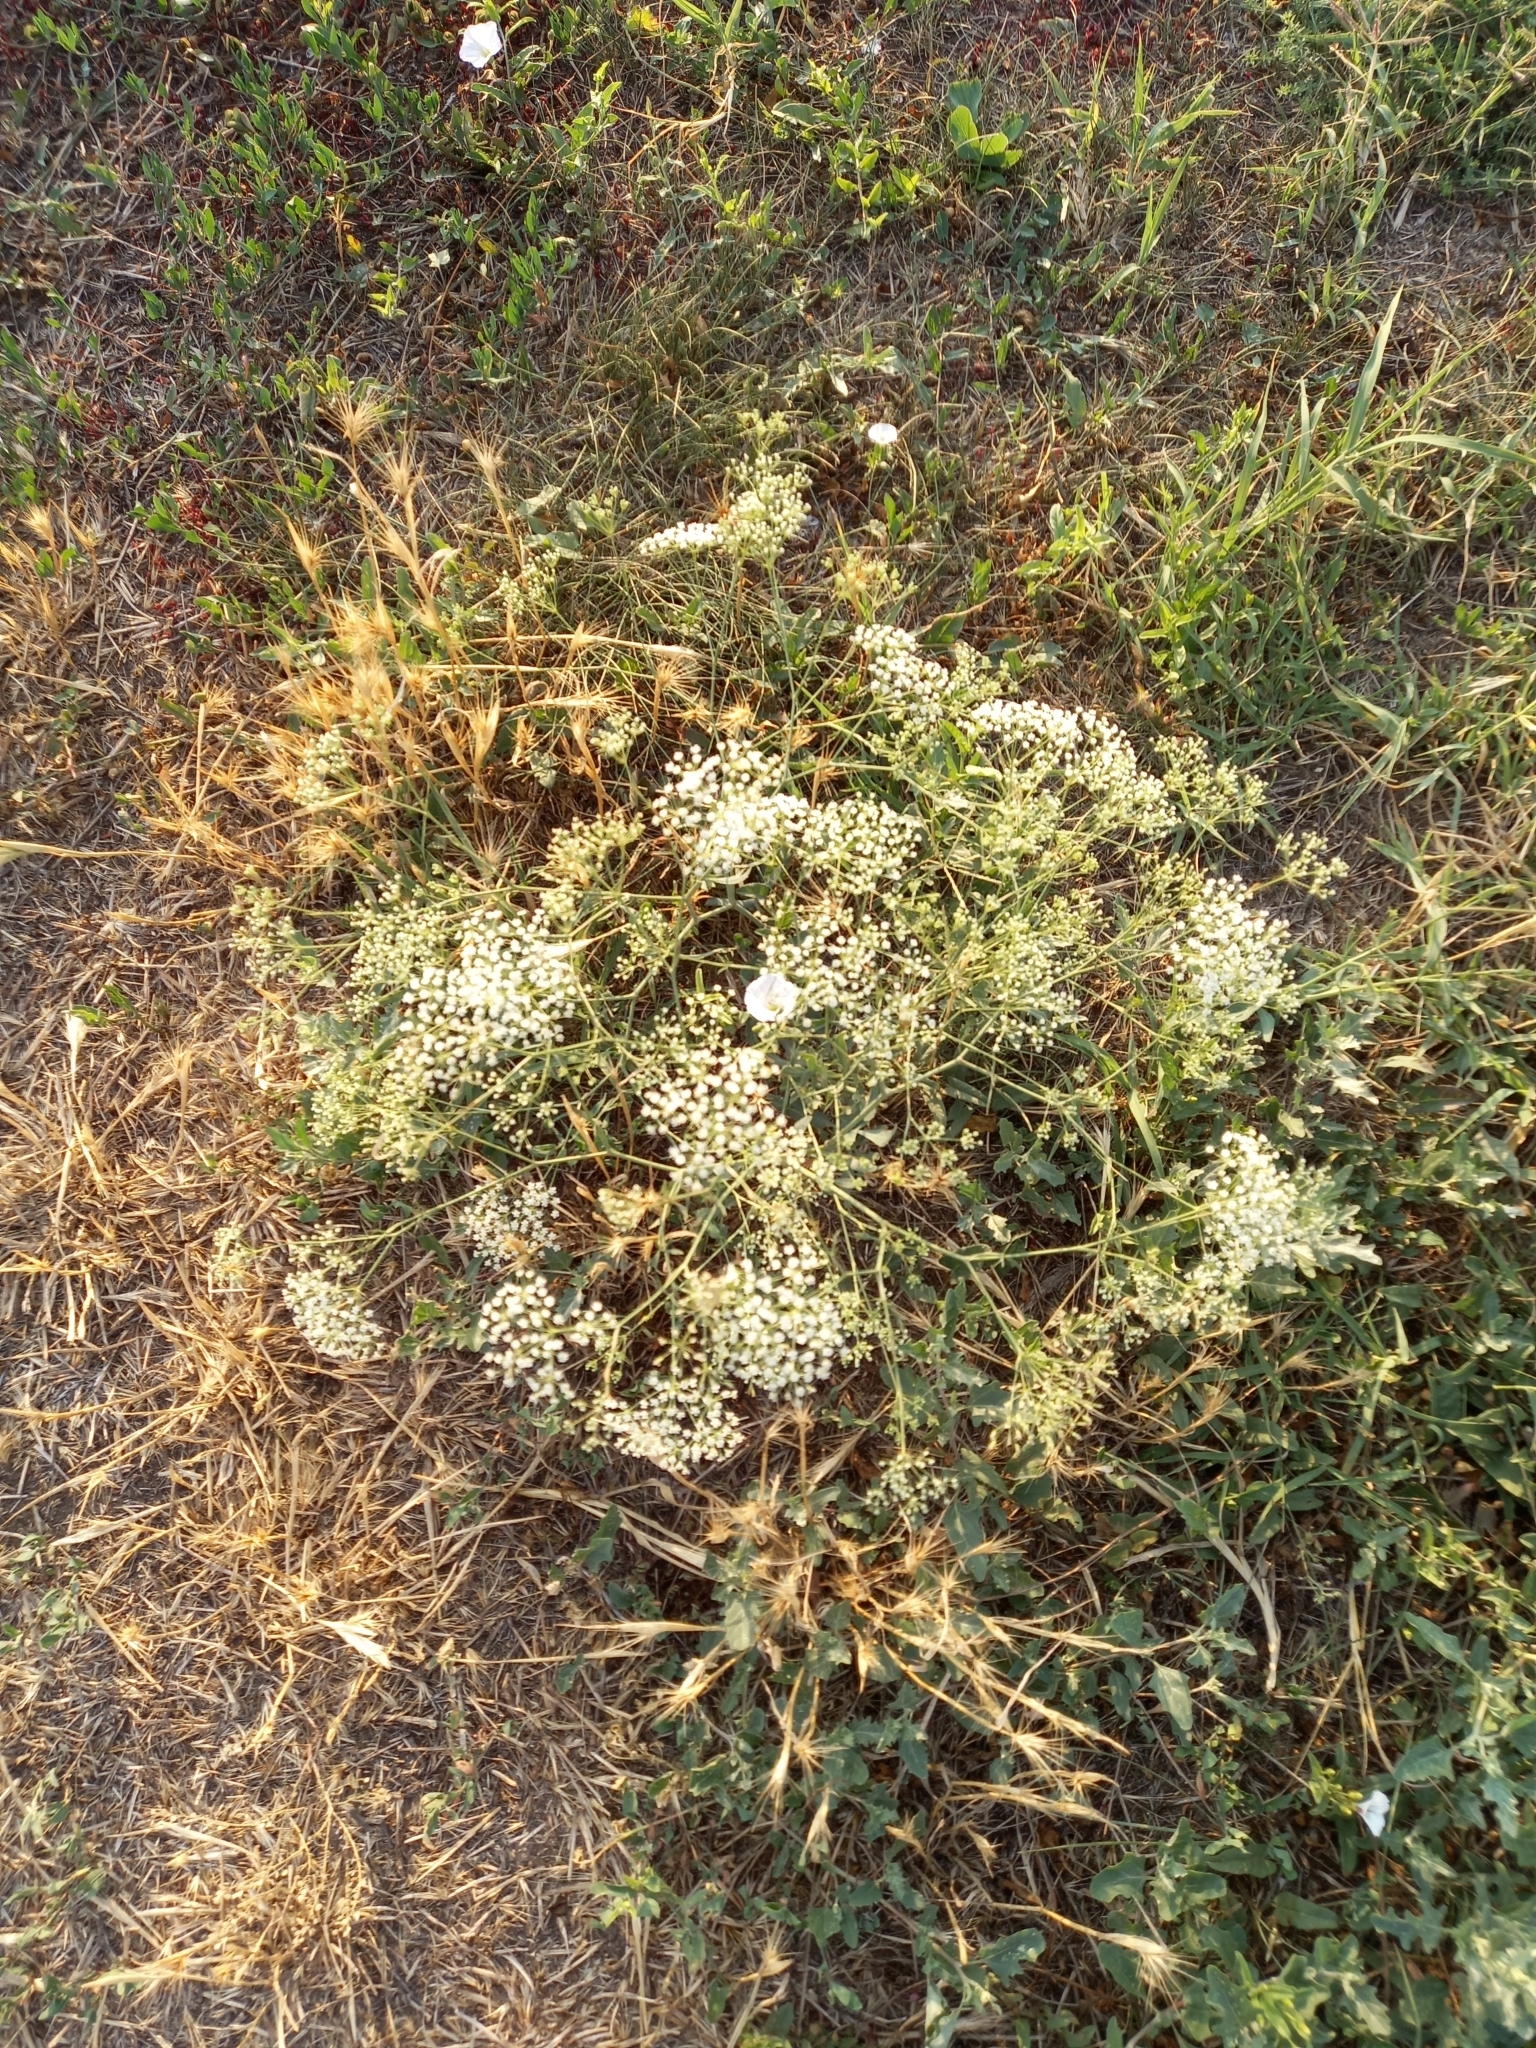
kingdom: Plantae
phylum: Tracheophyta
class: Magnoliopsida
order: Apiales
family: Apiaceae
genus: Falcaria
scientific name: Falcaria vulgaris
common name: Longleaf
